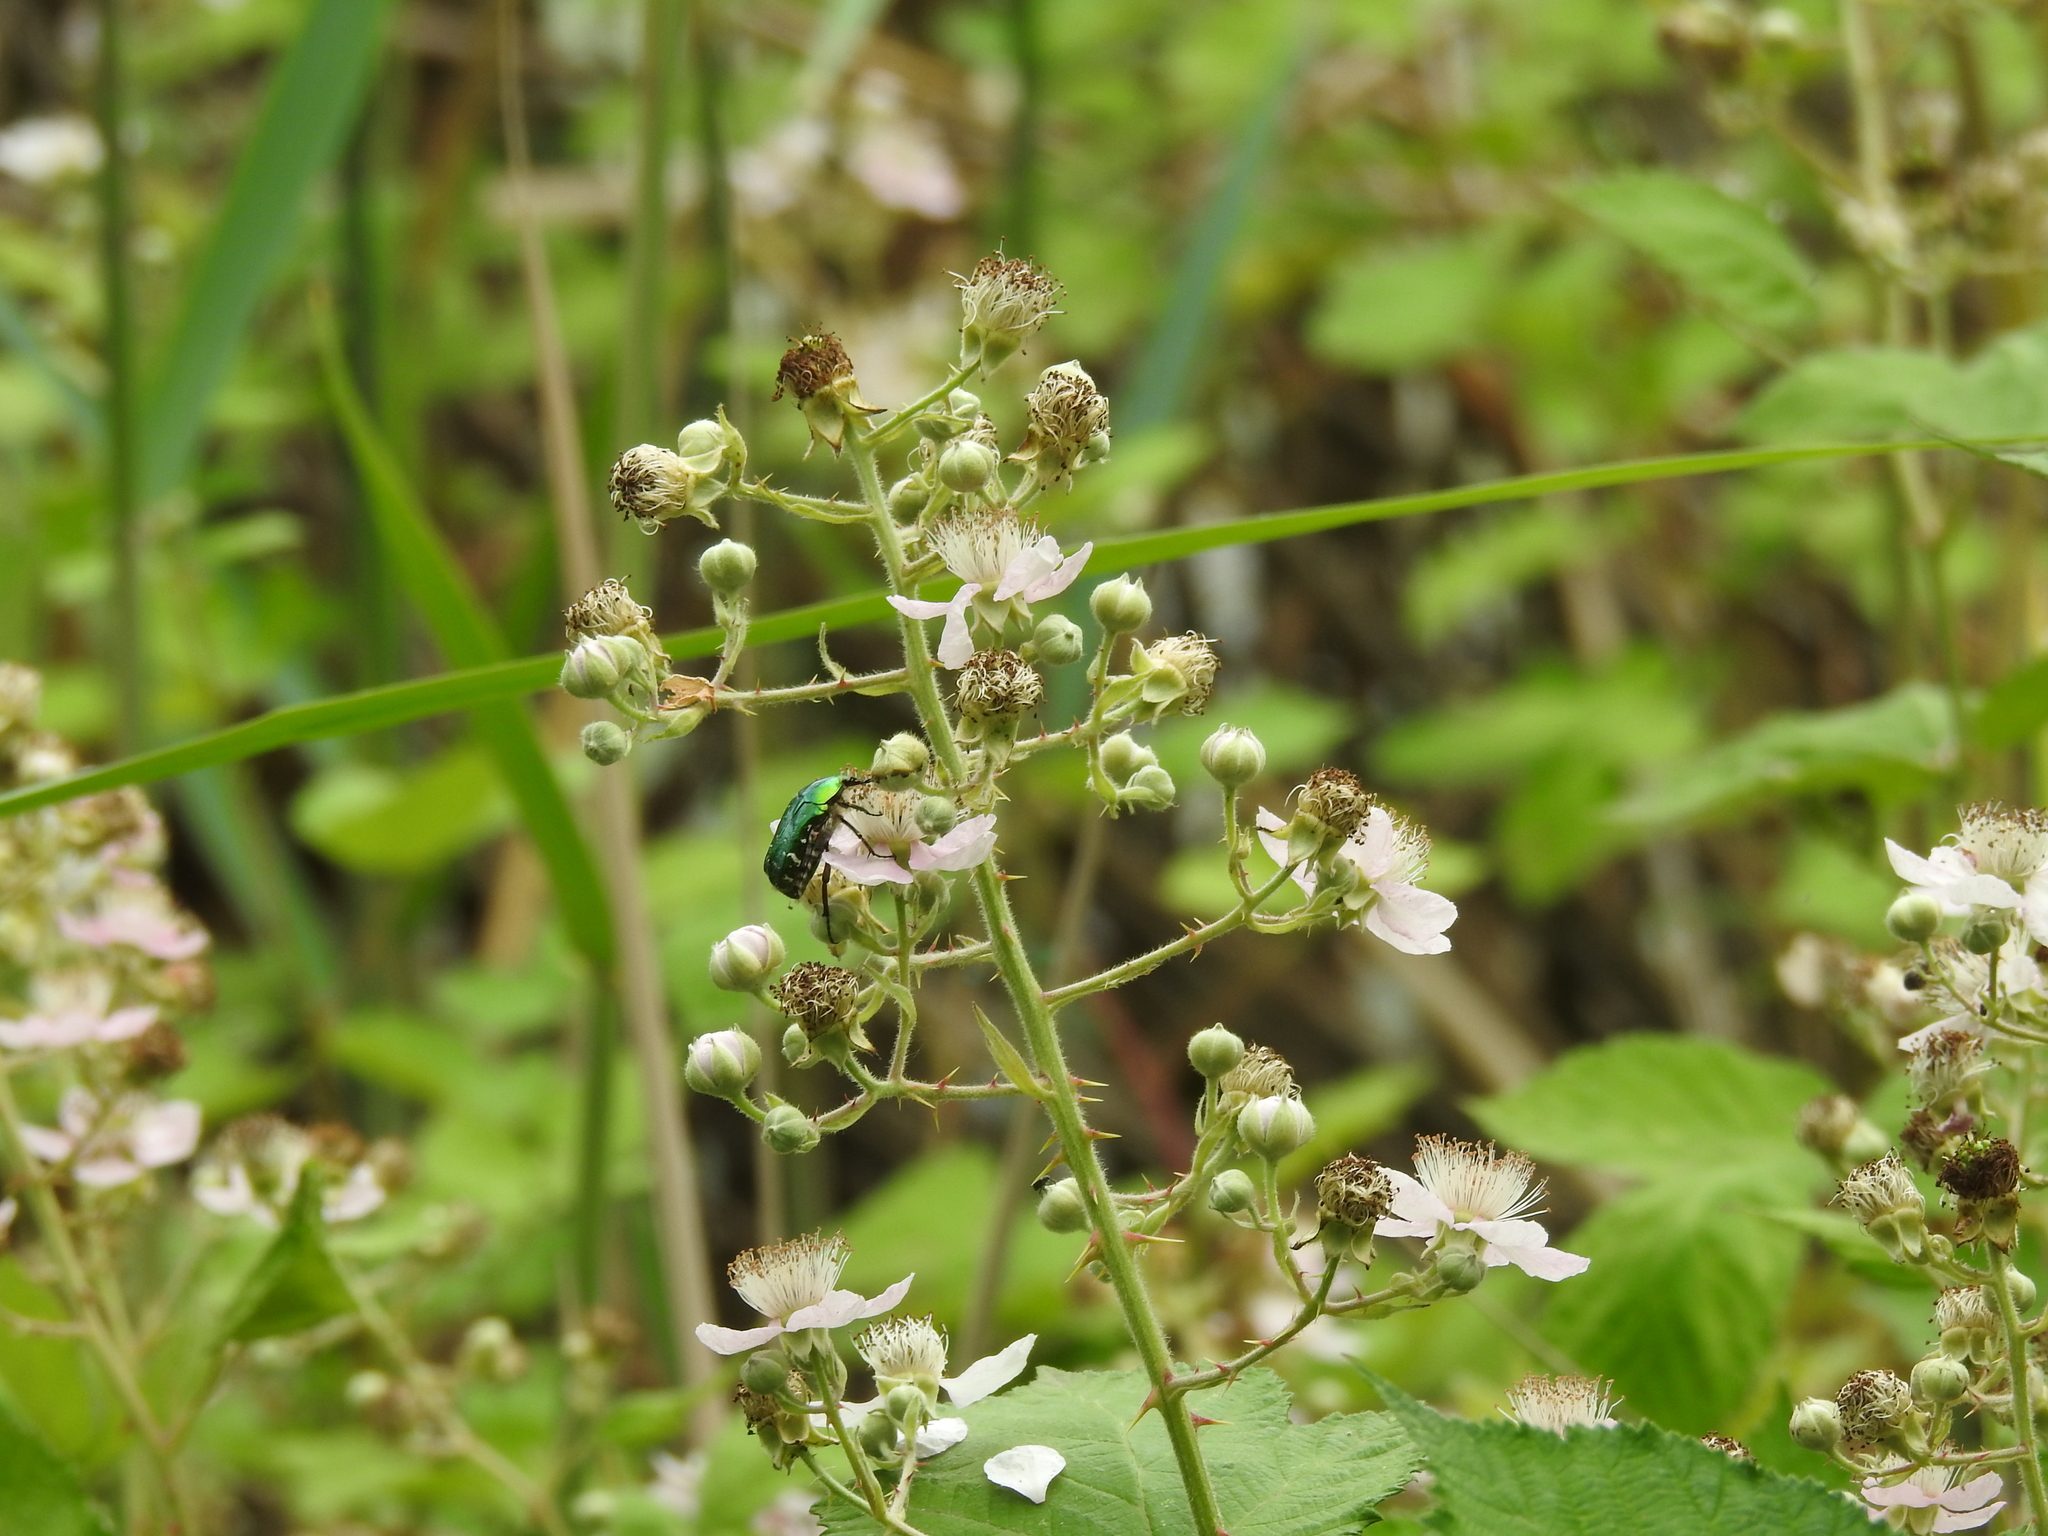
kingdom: Animalia
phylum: Arthropoda
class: Insecta
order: Coleoptera
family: Scarabaeidae
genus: Cetonia
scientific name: Cetonia aurata
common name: Rose chafer
